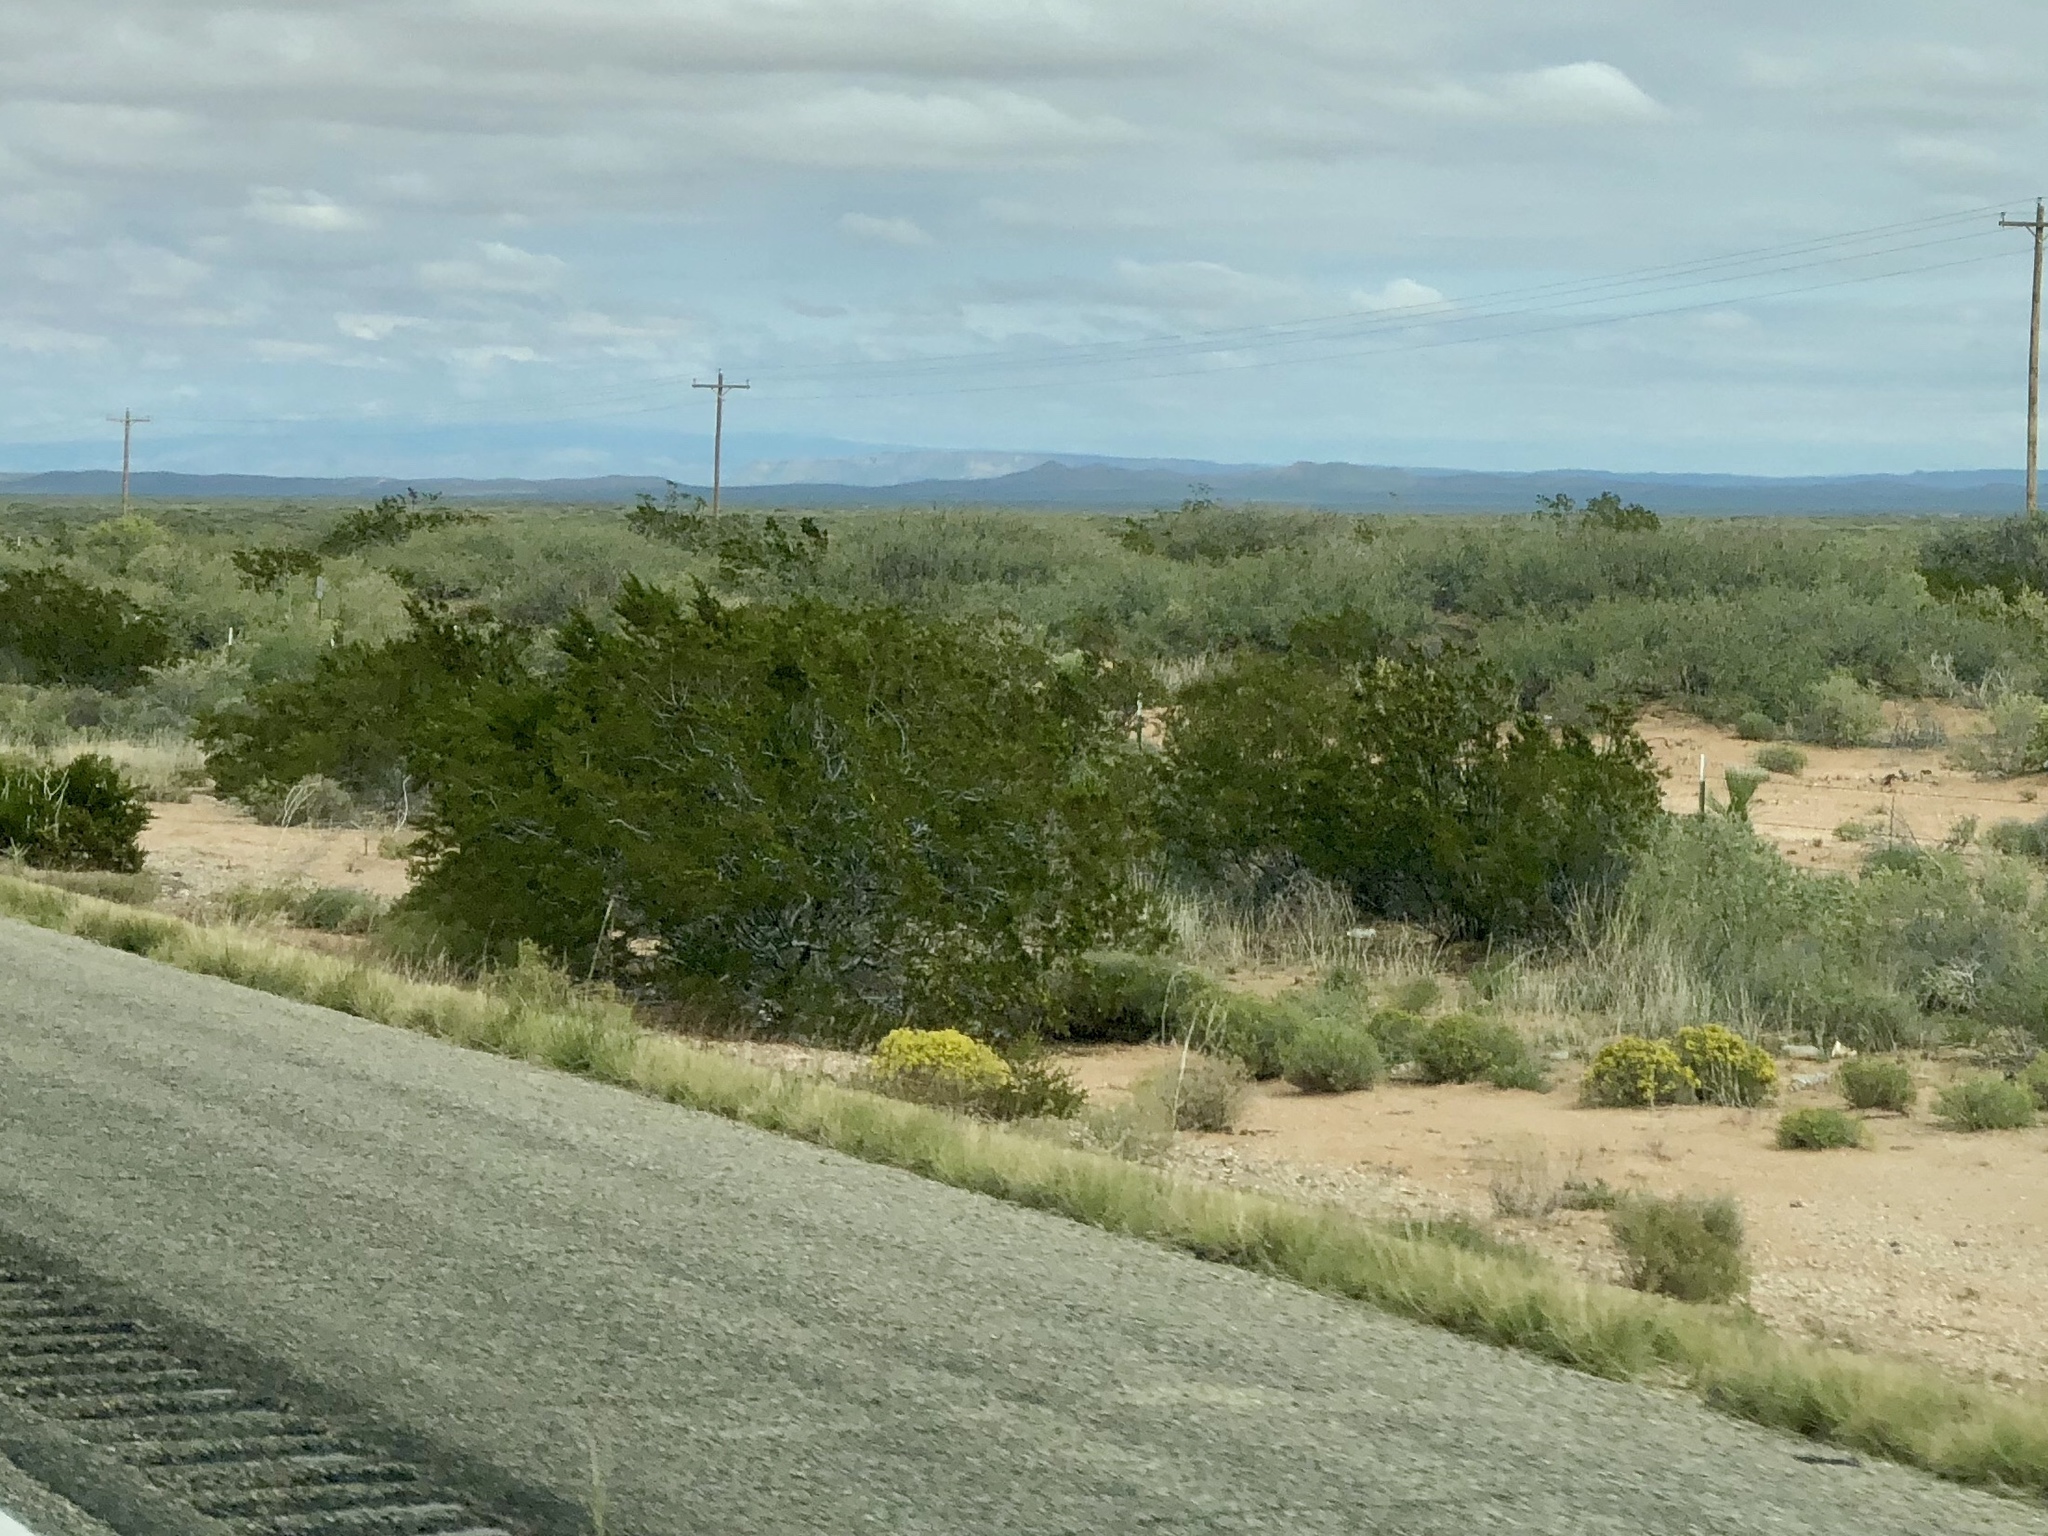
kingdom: Plantae
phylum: Tracheophyta
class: Magnoliopsida
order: Zygophyllales
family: Zygophyllaceae
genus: Larrea
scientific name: Larrea tridentata
